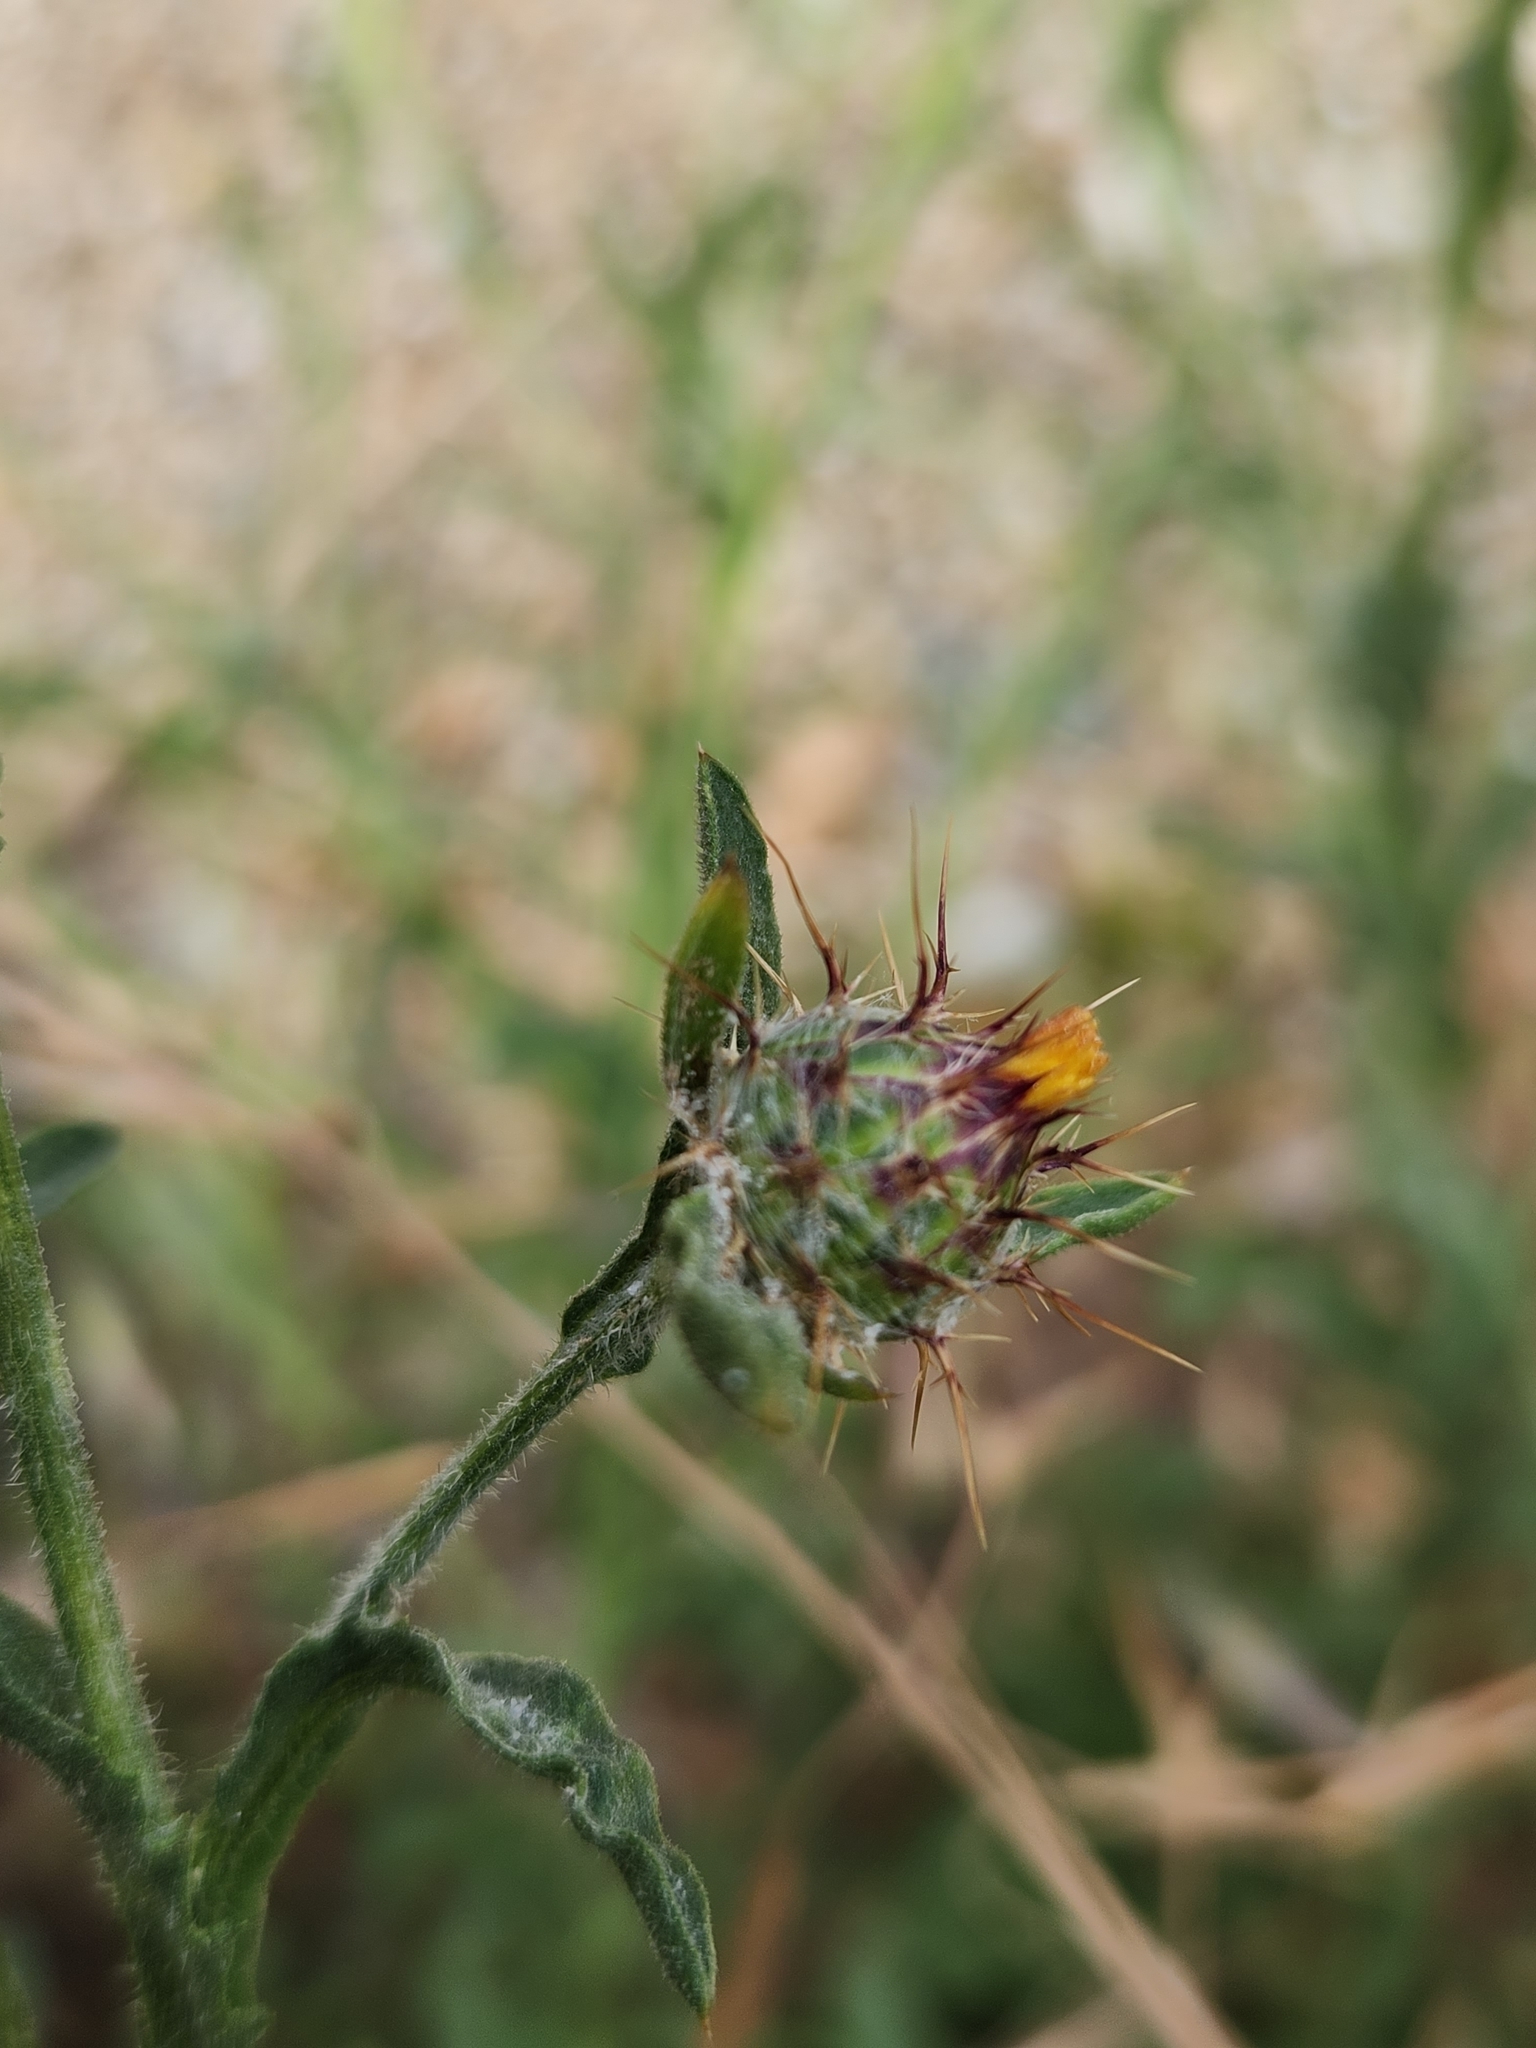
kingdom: Plantae
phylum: Tracheophyta
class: Magnoliopsida
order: Asterales
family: Asteraceae
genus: Centaurea
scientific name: Centaurea melitensis
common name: Maltese star-thistle
